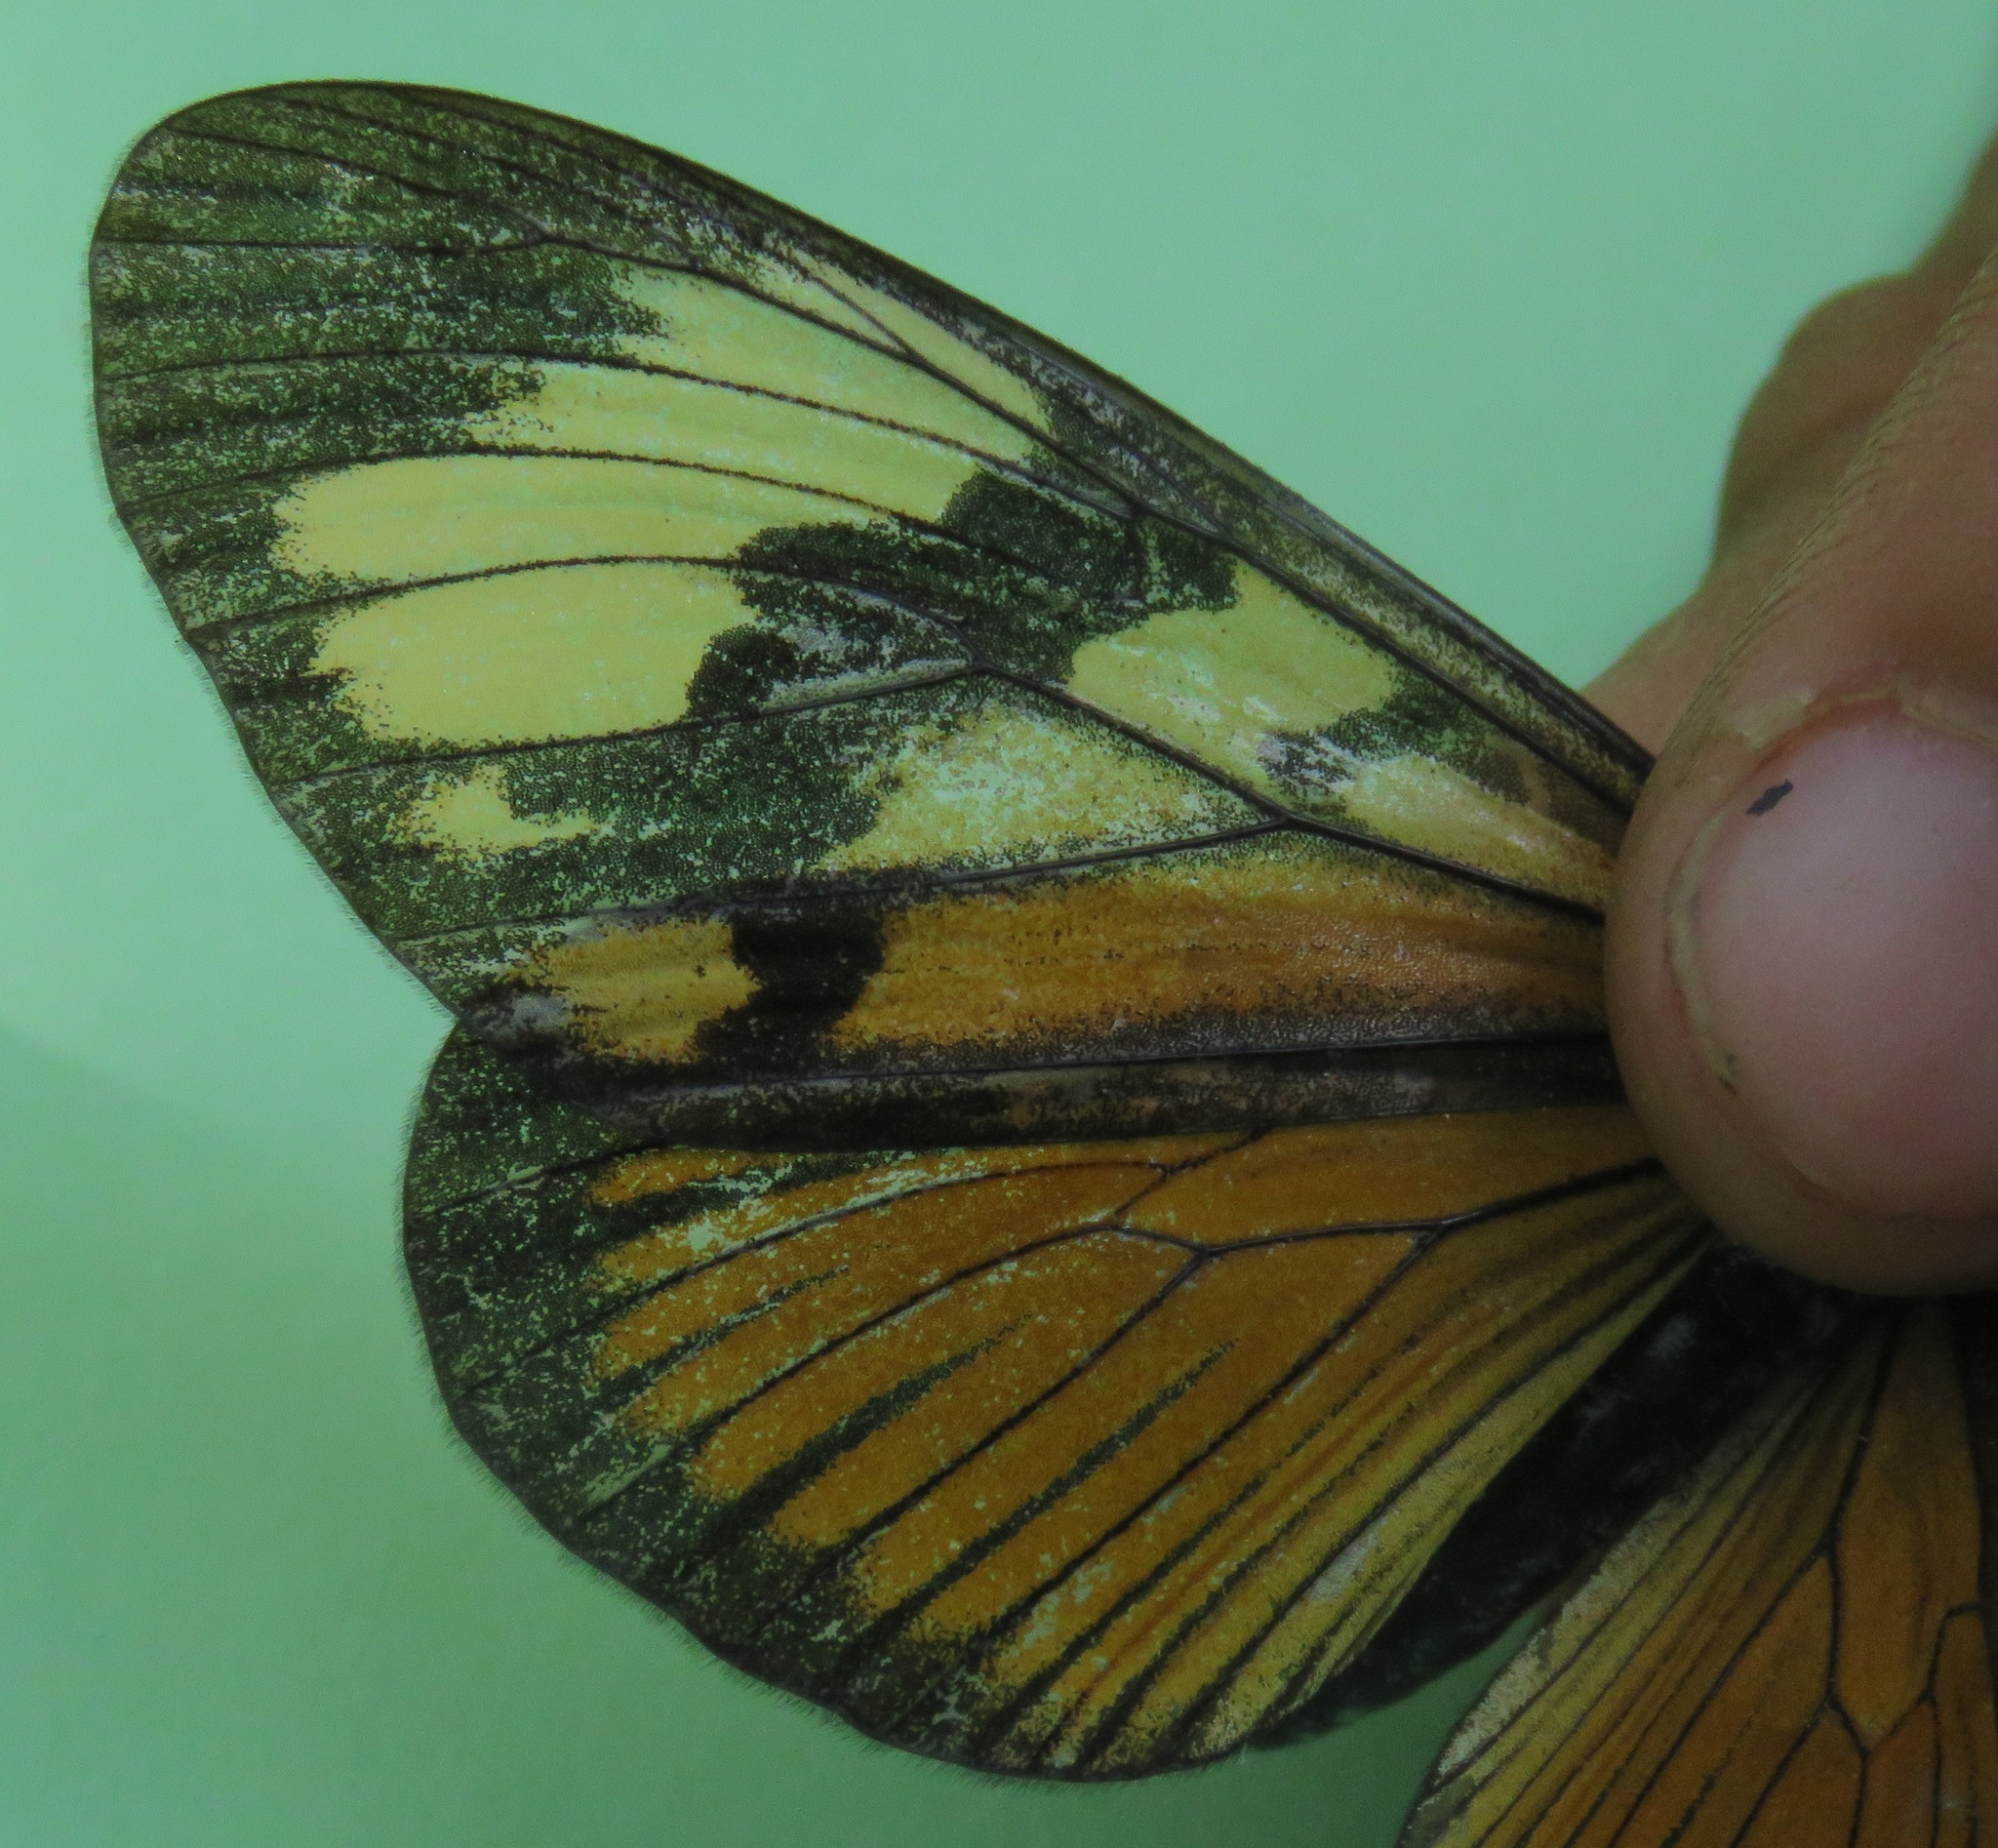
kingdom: Animalia
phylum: Arthropoda
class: Insecta
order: Lepidoptera
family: Nymphalidae
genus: Actinote
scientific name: Actinote anteas
